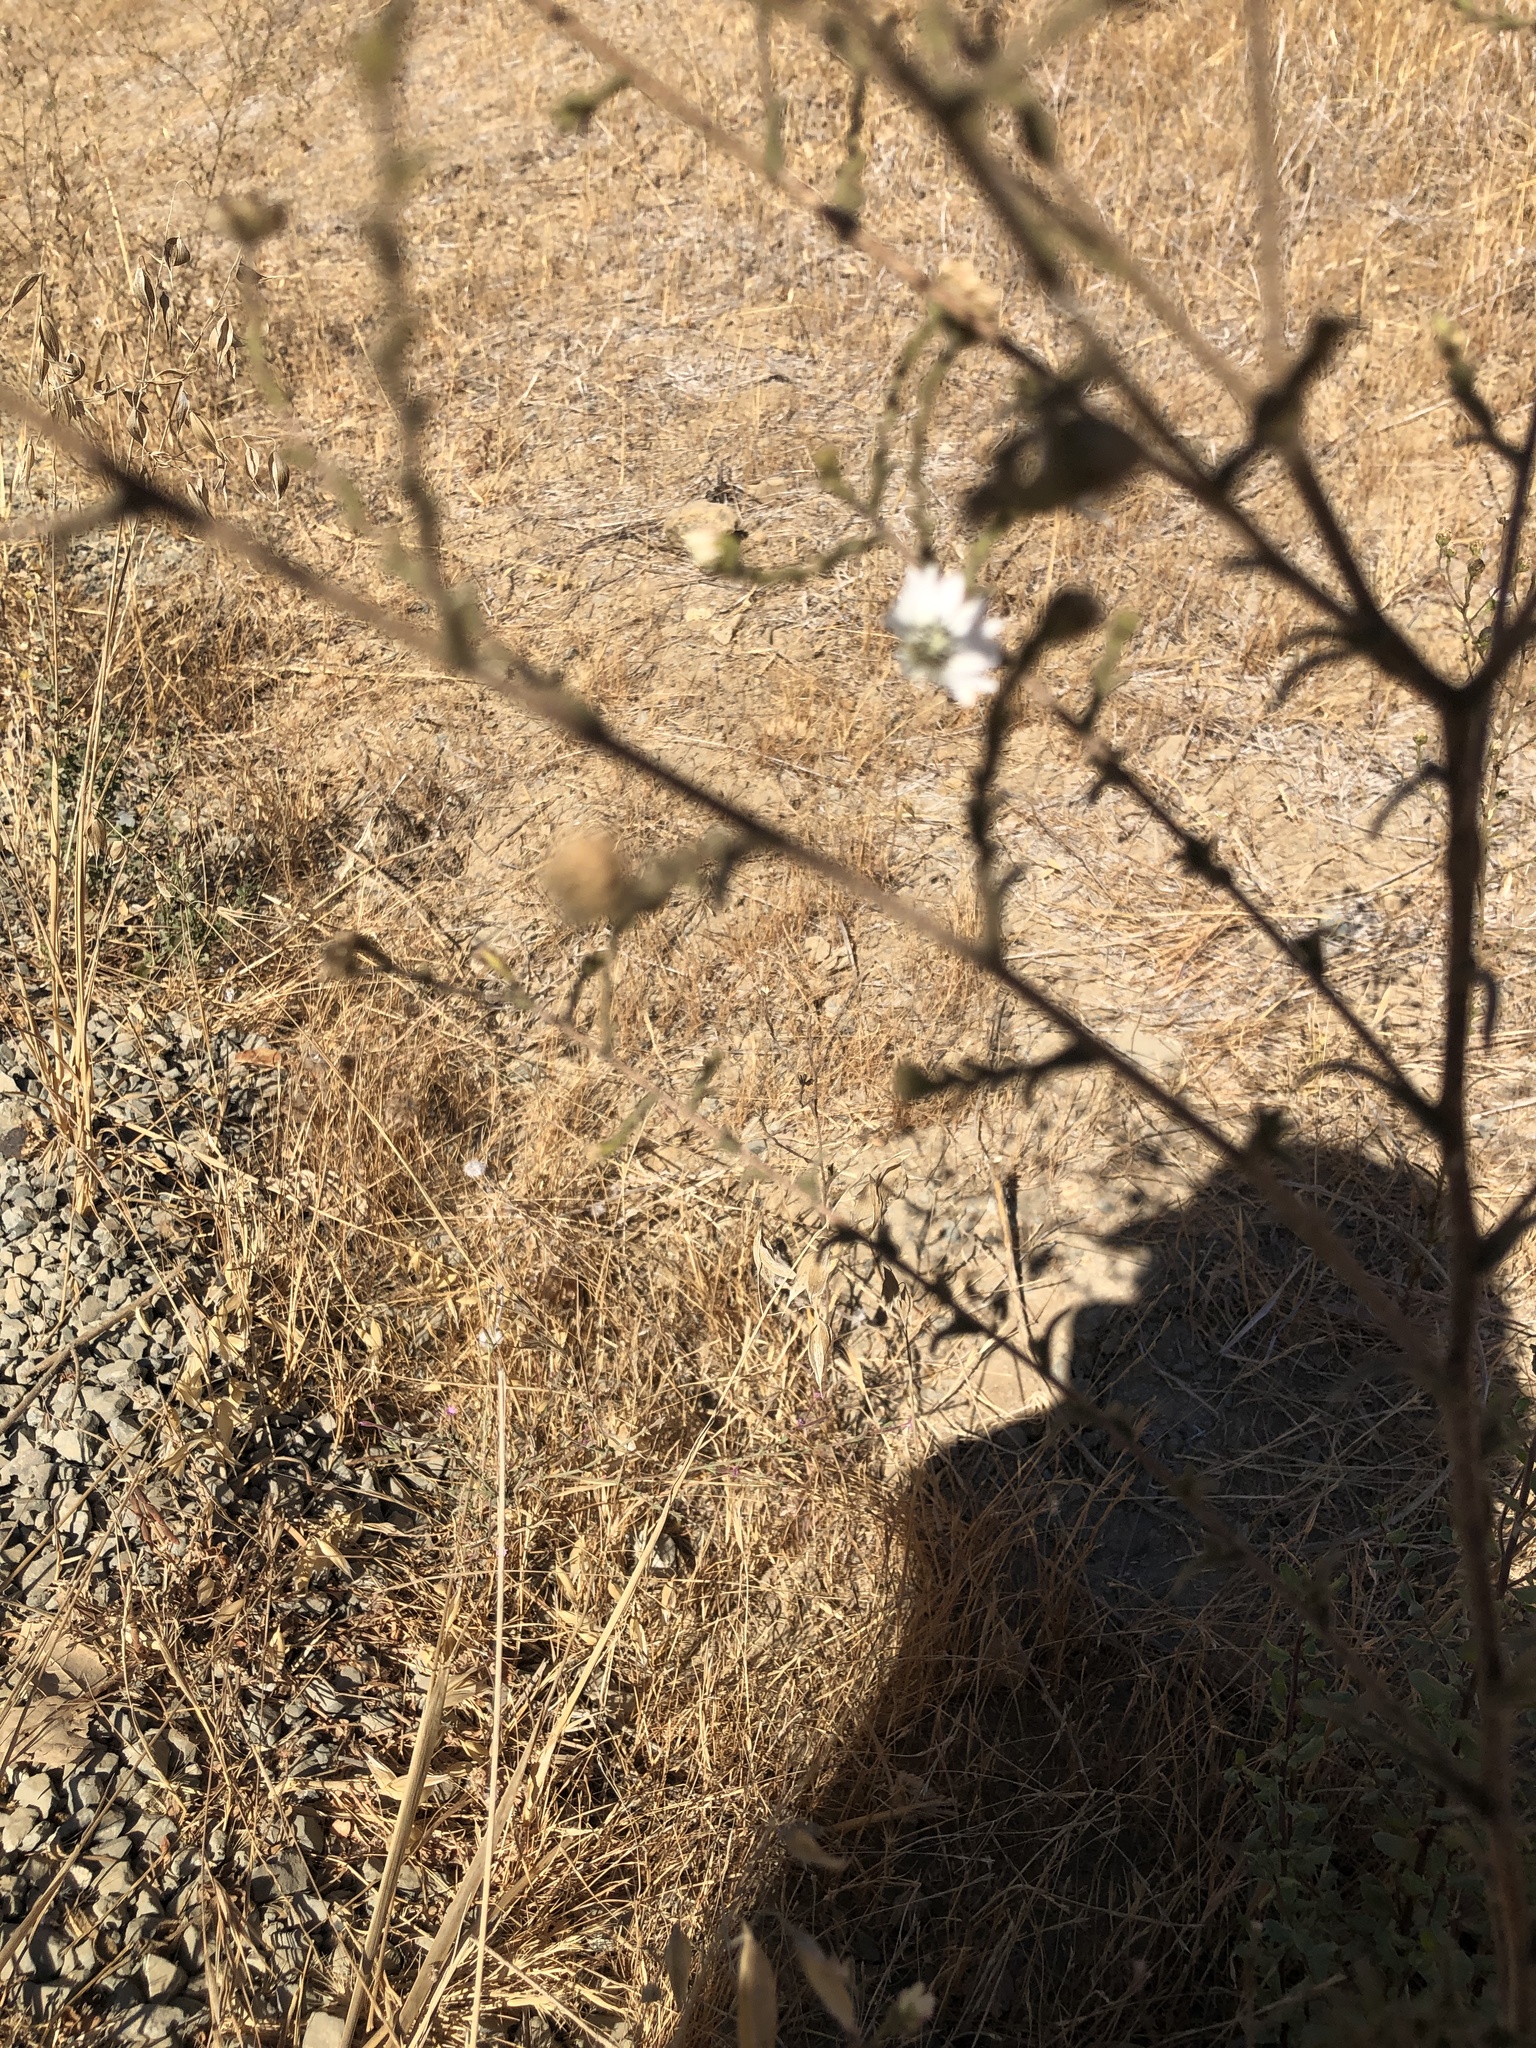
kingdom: Plantae
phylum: Tracheophyta
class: Magnoliopsida
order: Asterales
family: Asteraceae
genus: Hemizonia
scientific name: Hemizonia congesta
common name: Hayfield tarweed
